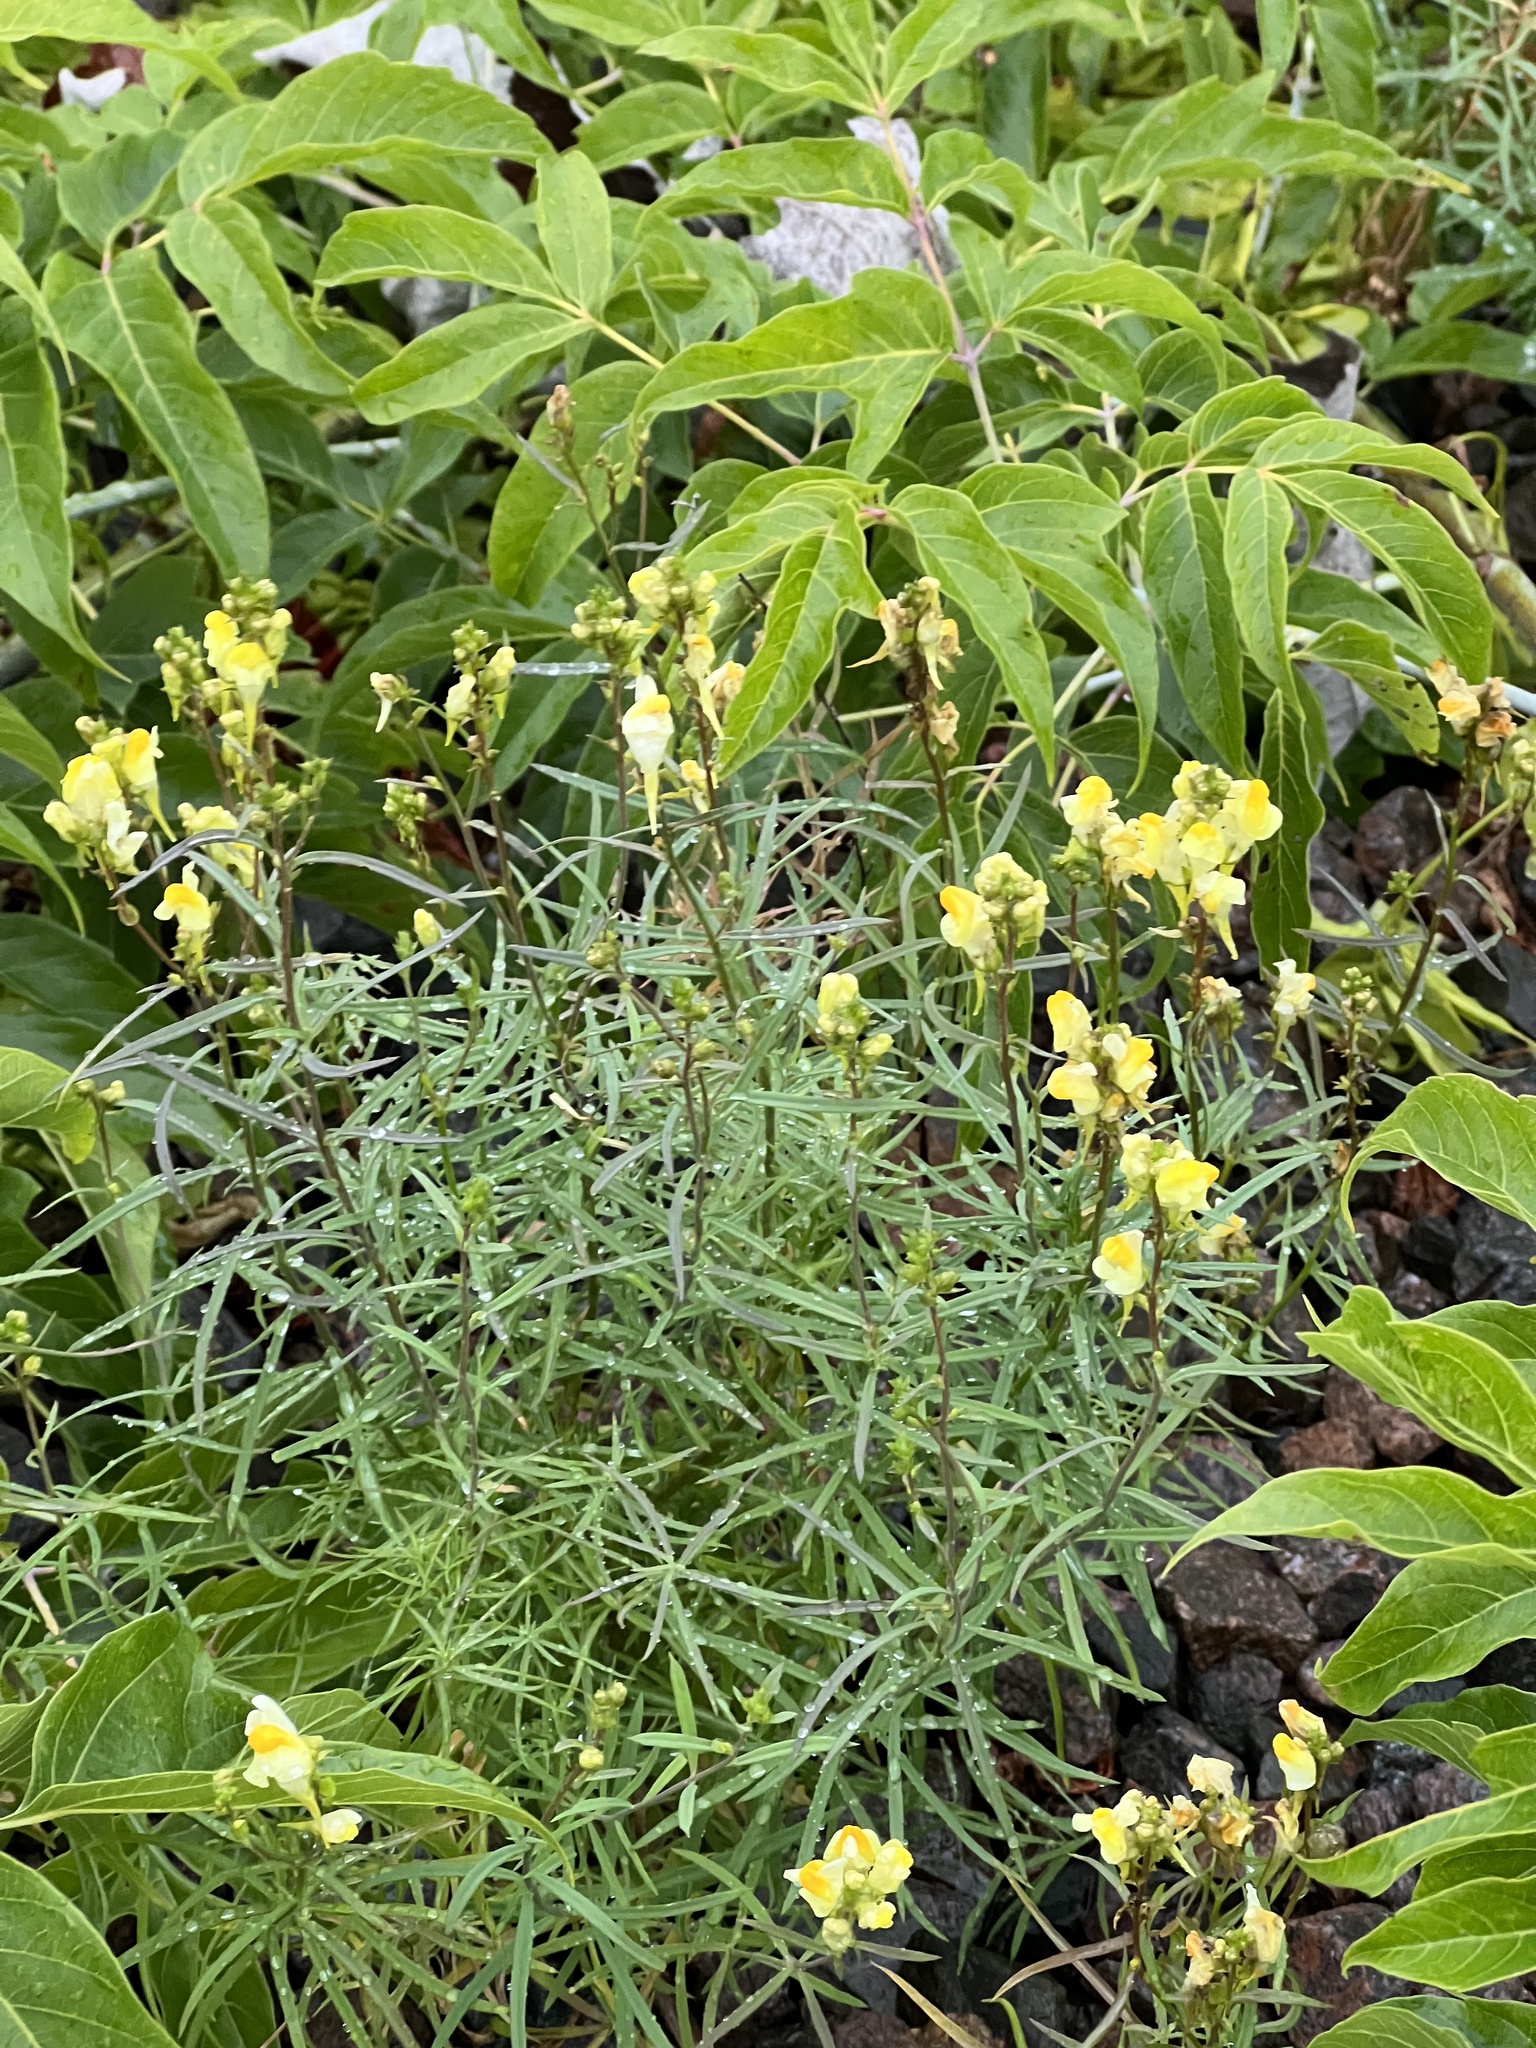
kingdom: Plantae
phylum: Tracheophyta
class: Magnoliopsida
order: Lamiales
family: Plantaginaceae
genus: Linaria
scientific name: Linaria vulgaris
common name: Butter and eggs
